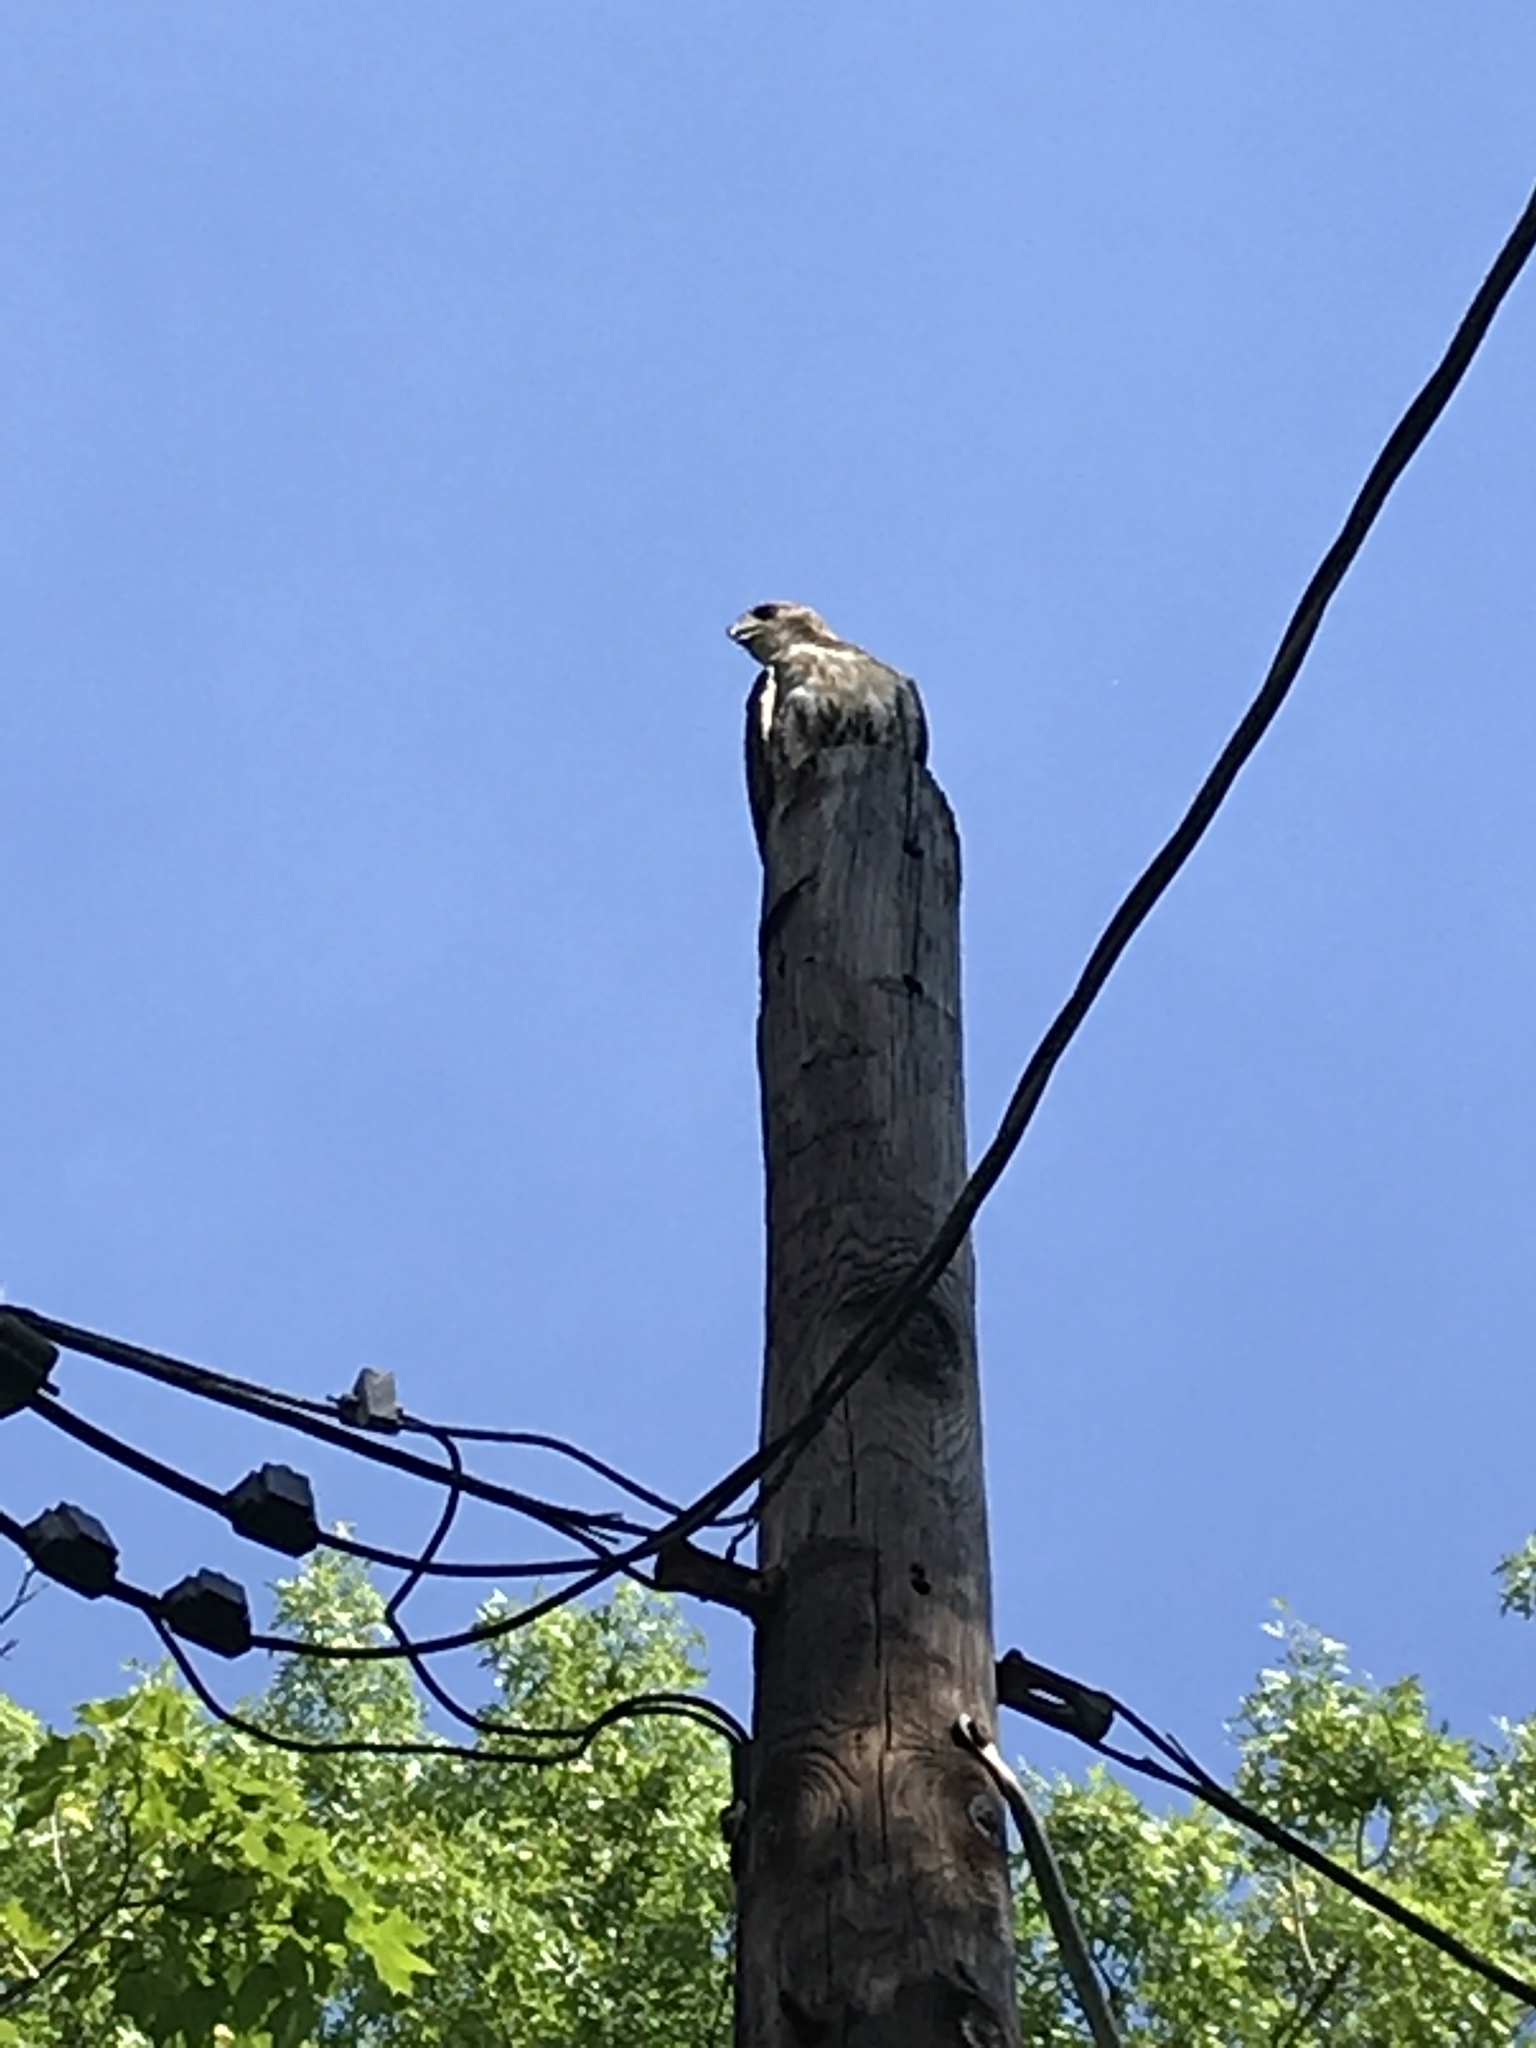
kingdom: Animalia
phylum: Chordata
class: Aves
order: Accipitriformes
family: Accipitridae
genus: Buteo
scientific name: Buteo jamaicensis
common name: Red-tailed hawk
